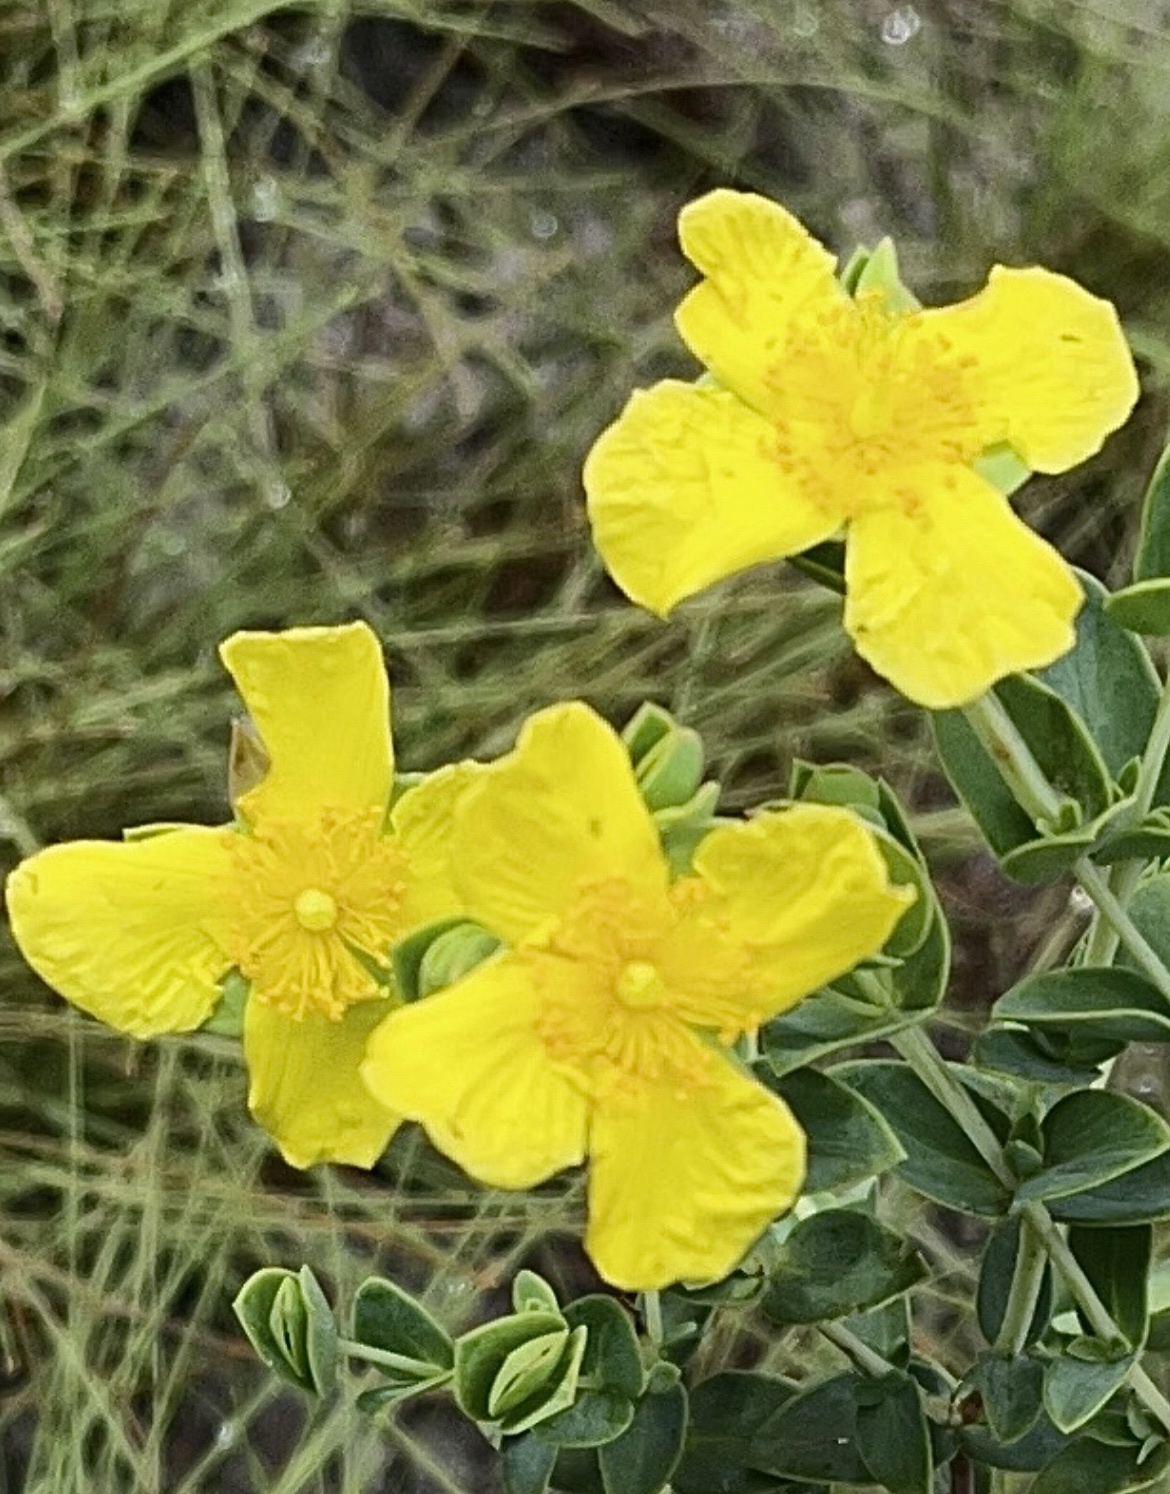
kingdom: Plantae
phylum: Tracheophyta
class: Magnoliopsida
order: Malpighiales
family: Hypericaceae
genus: Hypericum
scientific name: Hypericum tetrapetalum
